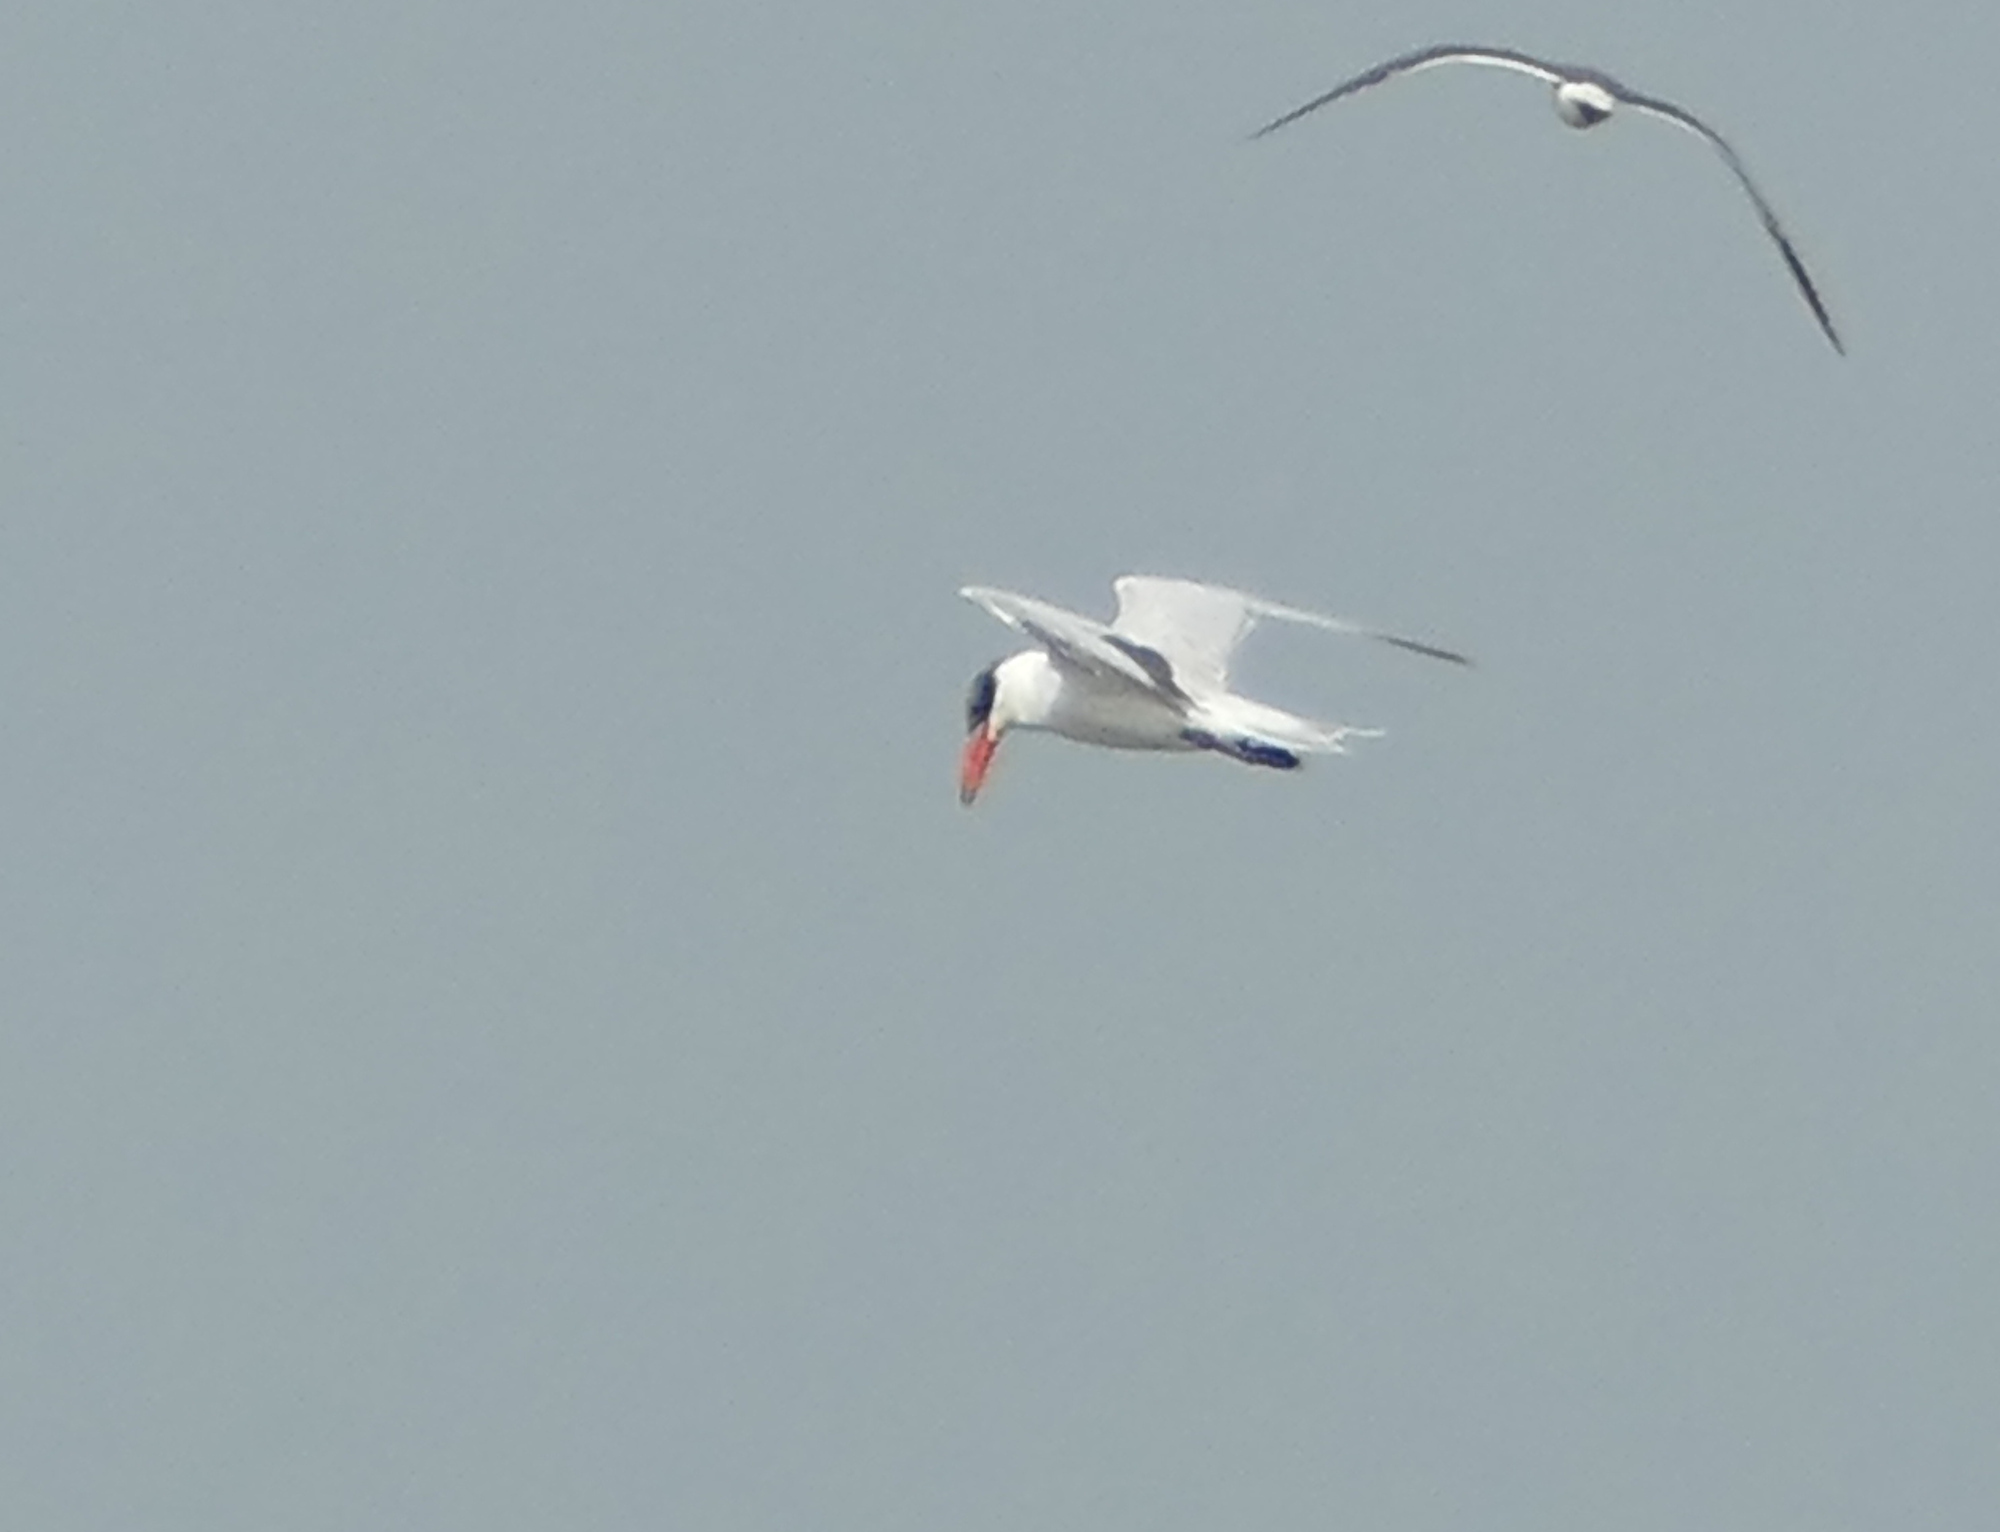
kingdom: Animalia
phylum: Chordata
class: Aves
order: Charadriiformes
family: Laridae
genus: Hydroprogne
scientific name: Hydroprogne caspia
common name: Caspian tern
